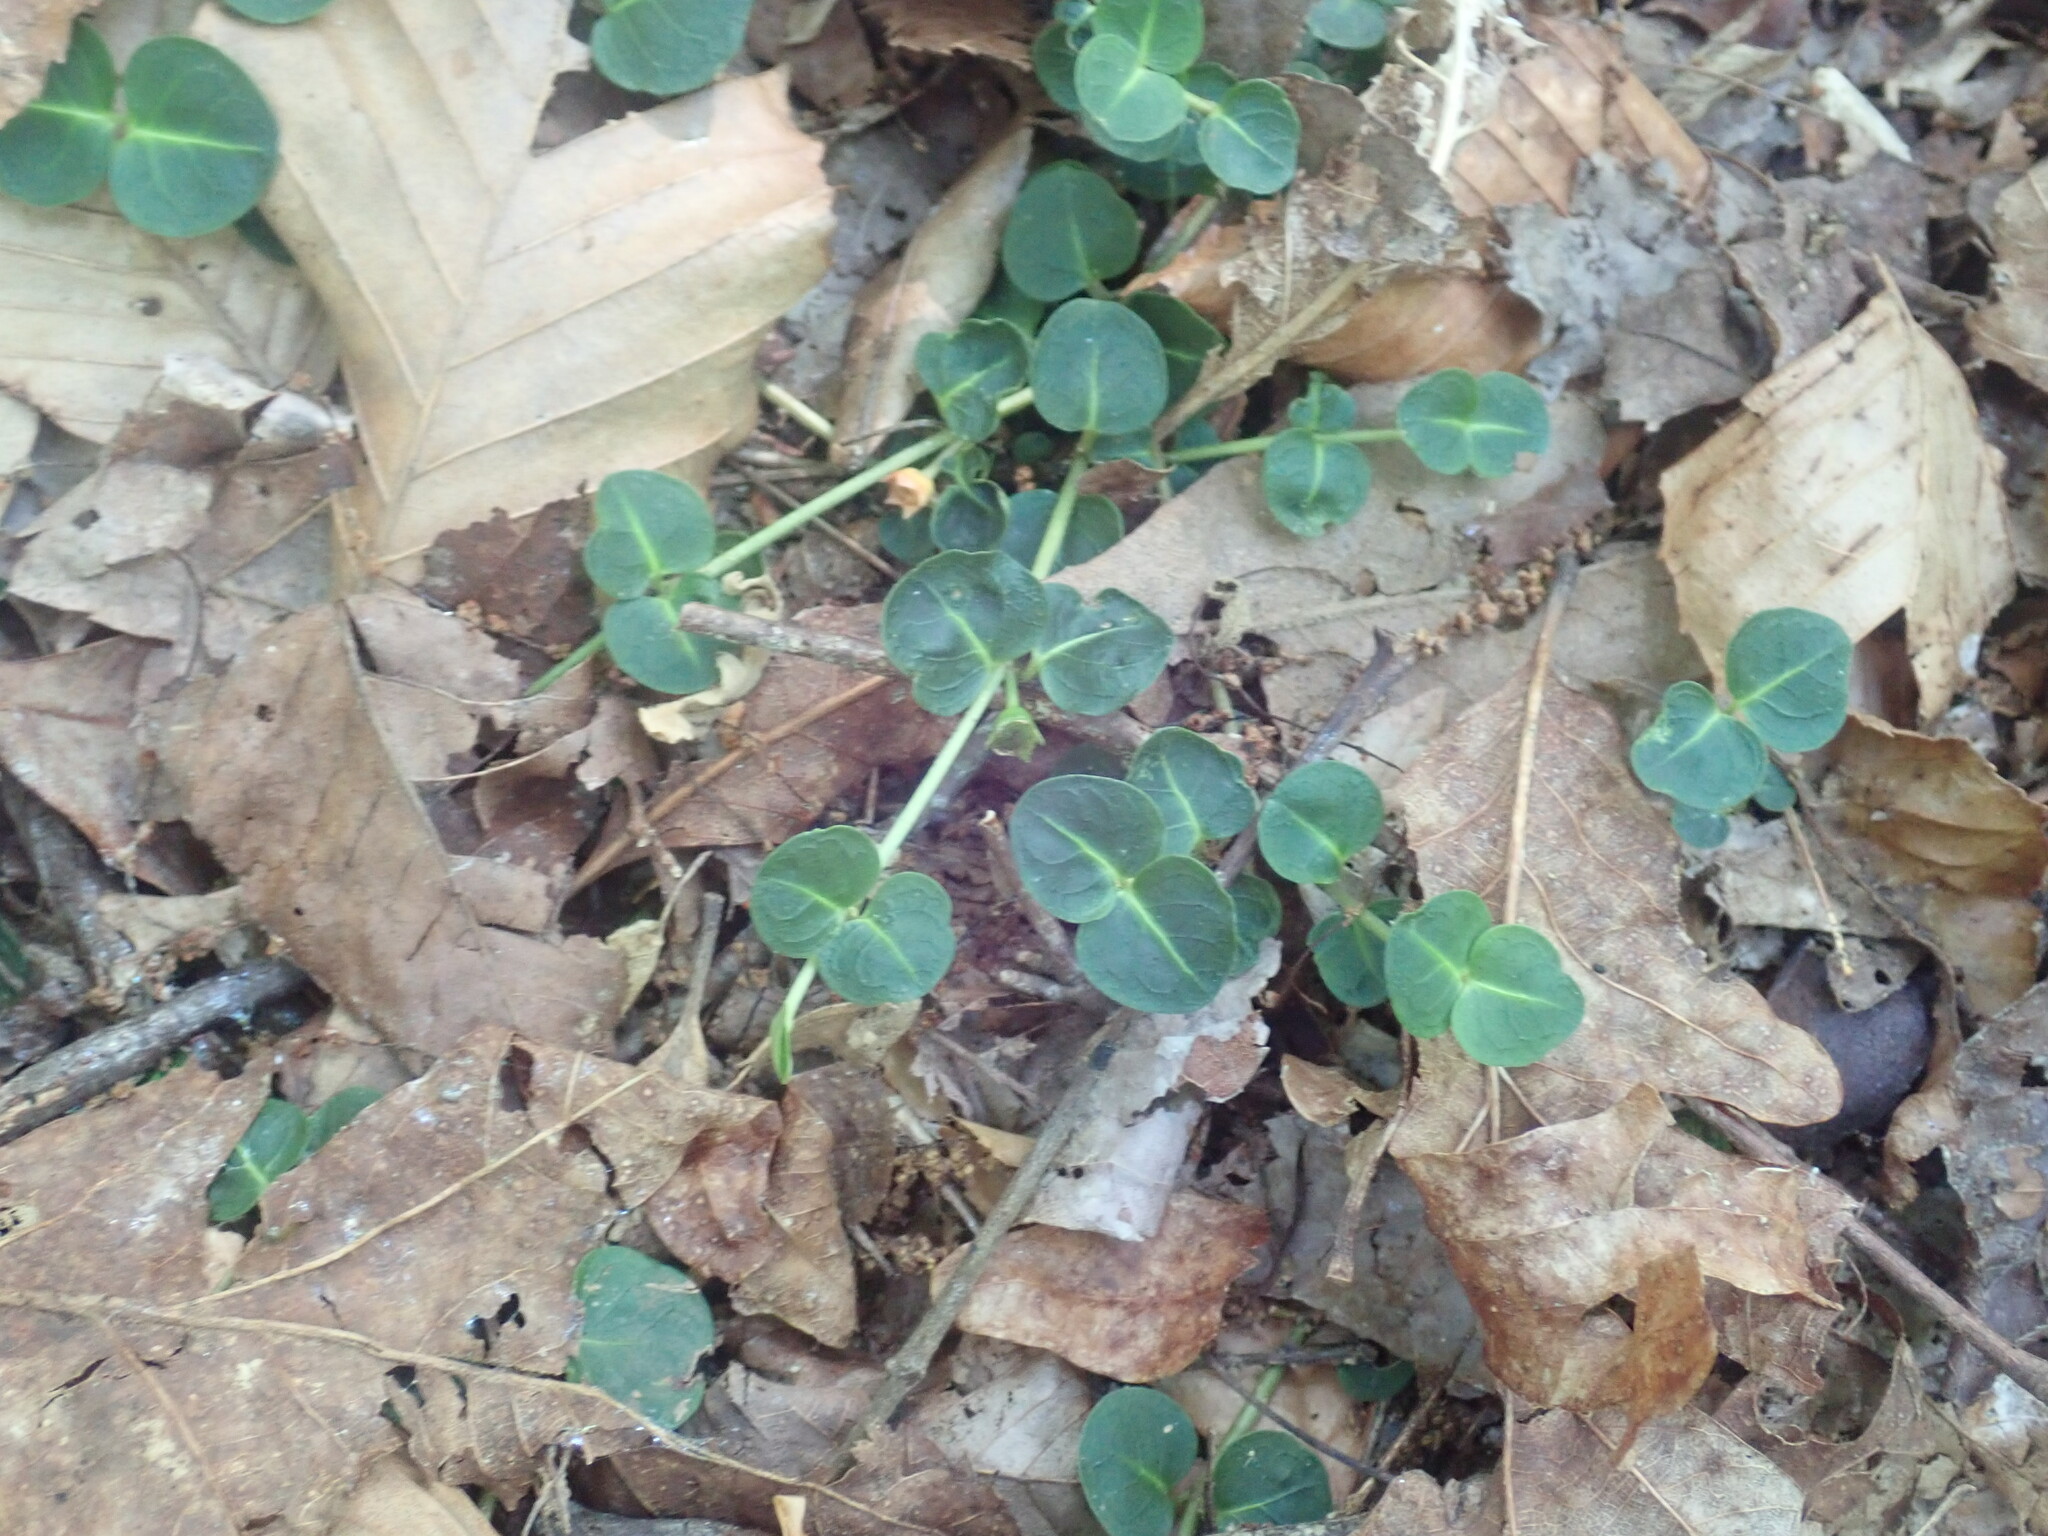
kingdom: Plantae
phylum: Tracheophyta
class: Magnoliopsida
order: Gentianales
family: Rubiaceae
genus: Mitchella
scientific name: Mitchella repens
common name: Partridge-berry
